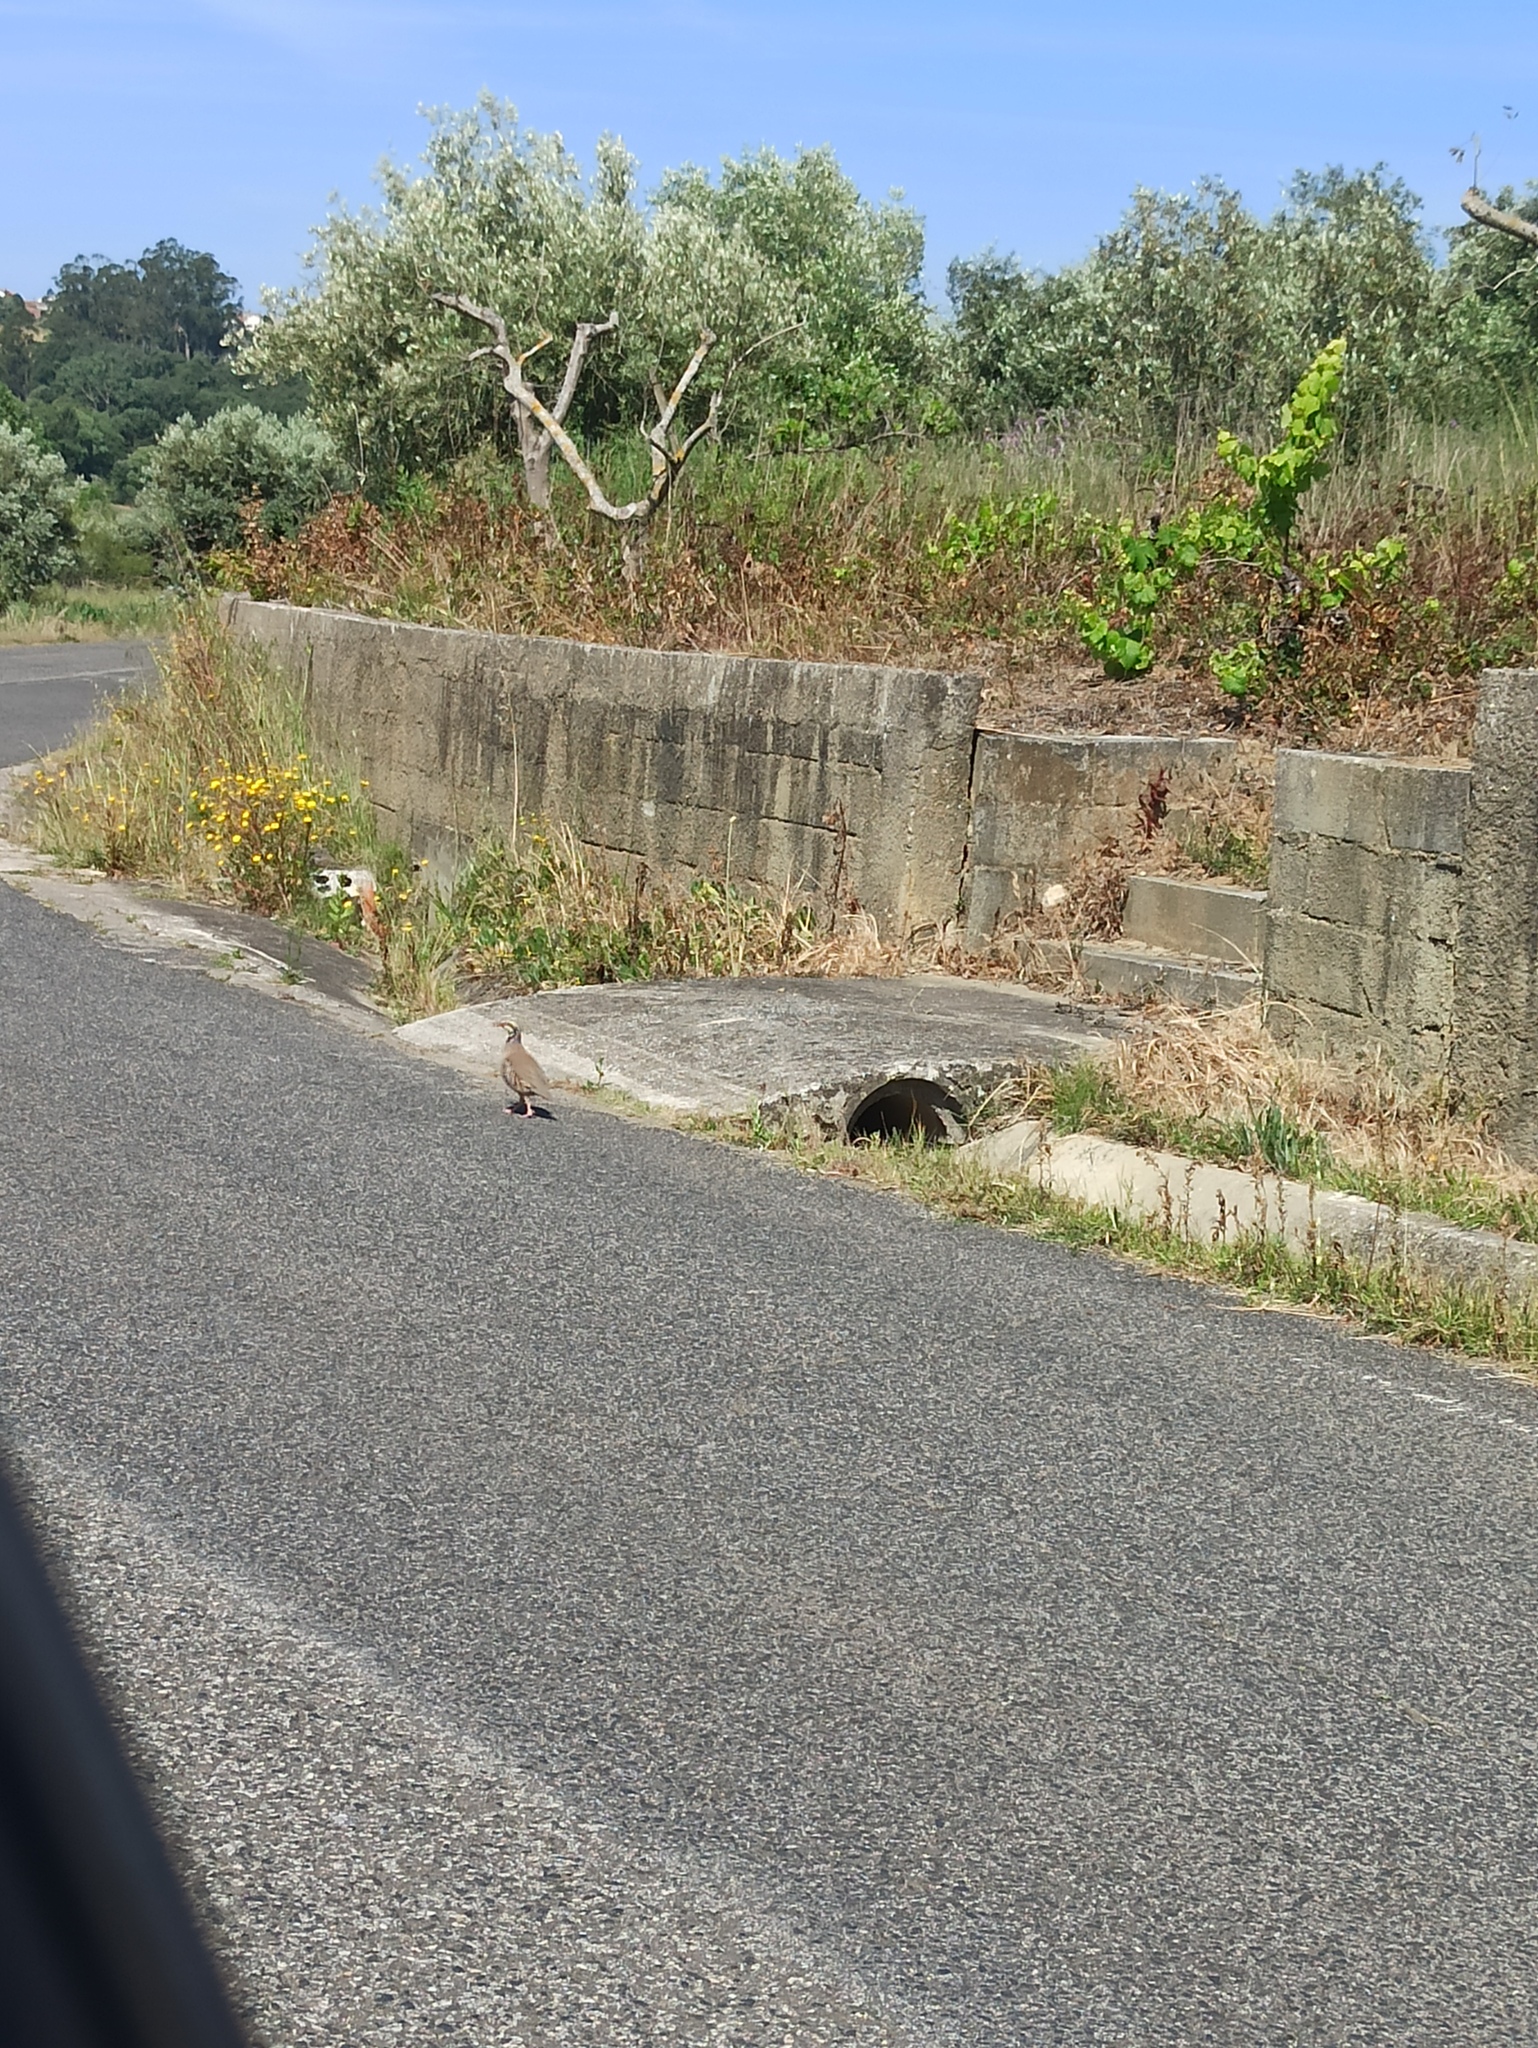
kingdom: Animalia
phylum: Chordata
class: Aves
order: Galliformes
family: Phasianidae
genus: Alectoris
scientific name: Alectoris rufa
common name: Red-legged partridge
